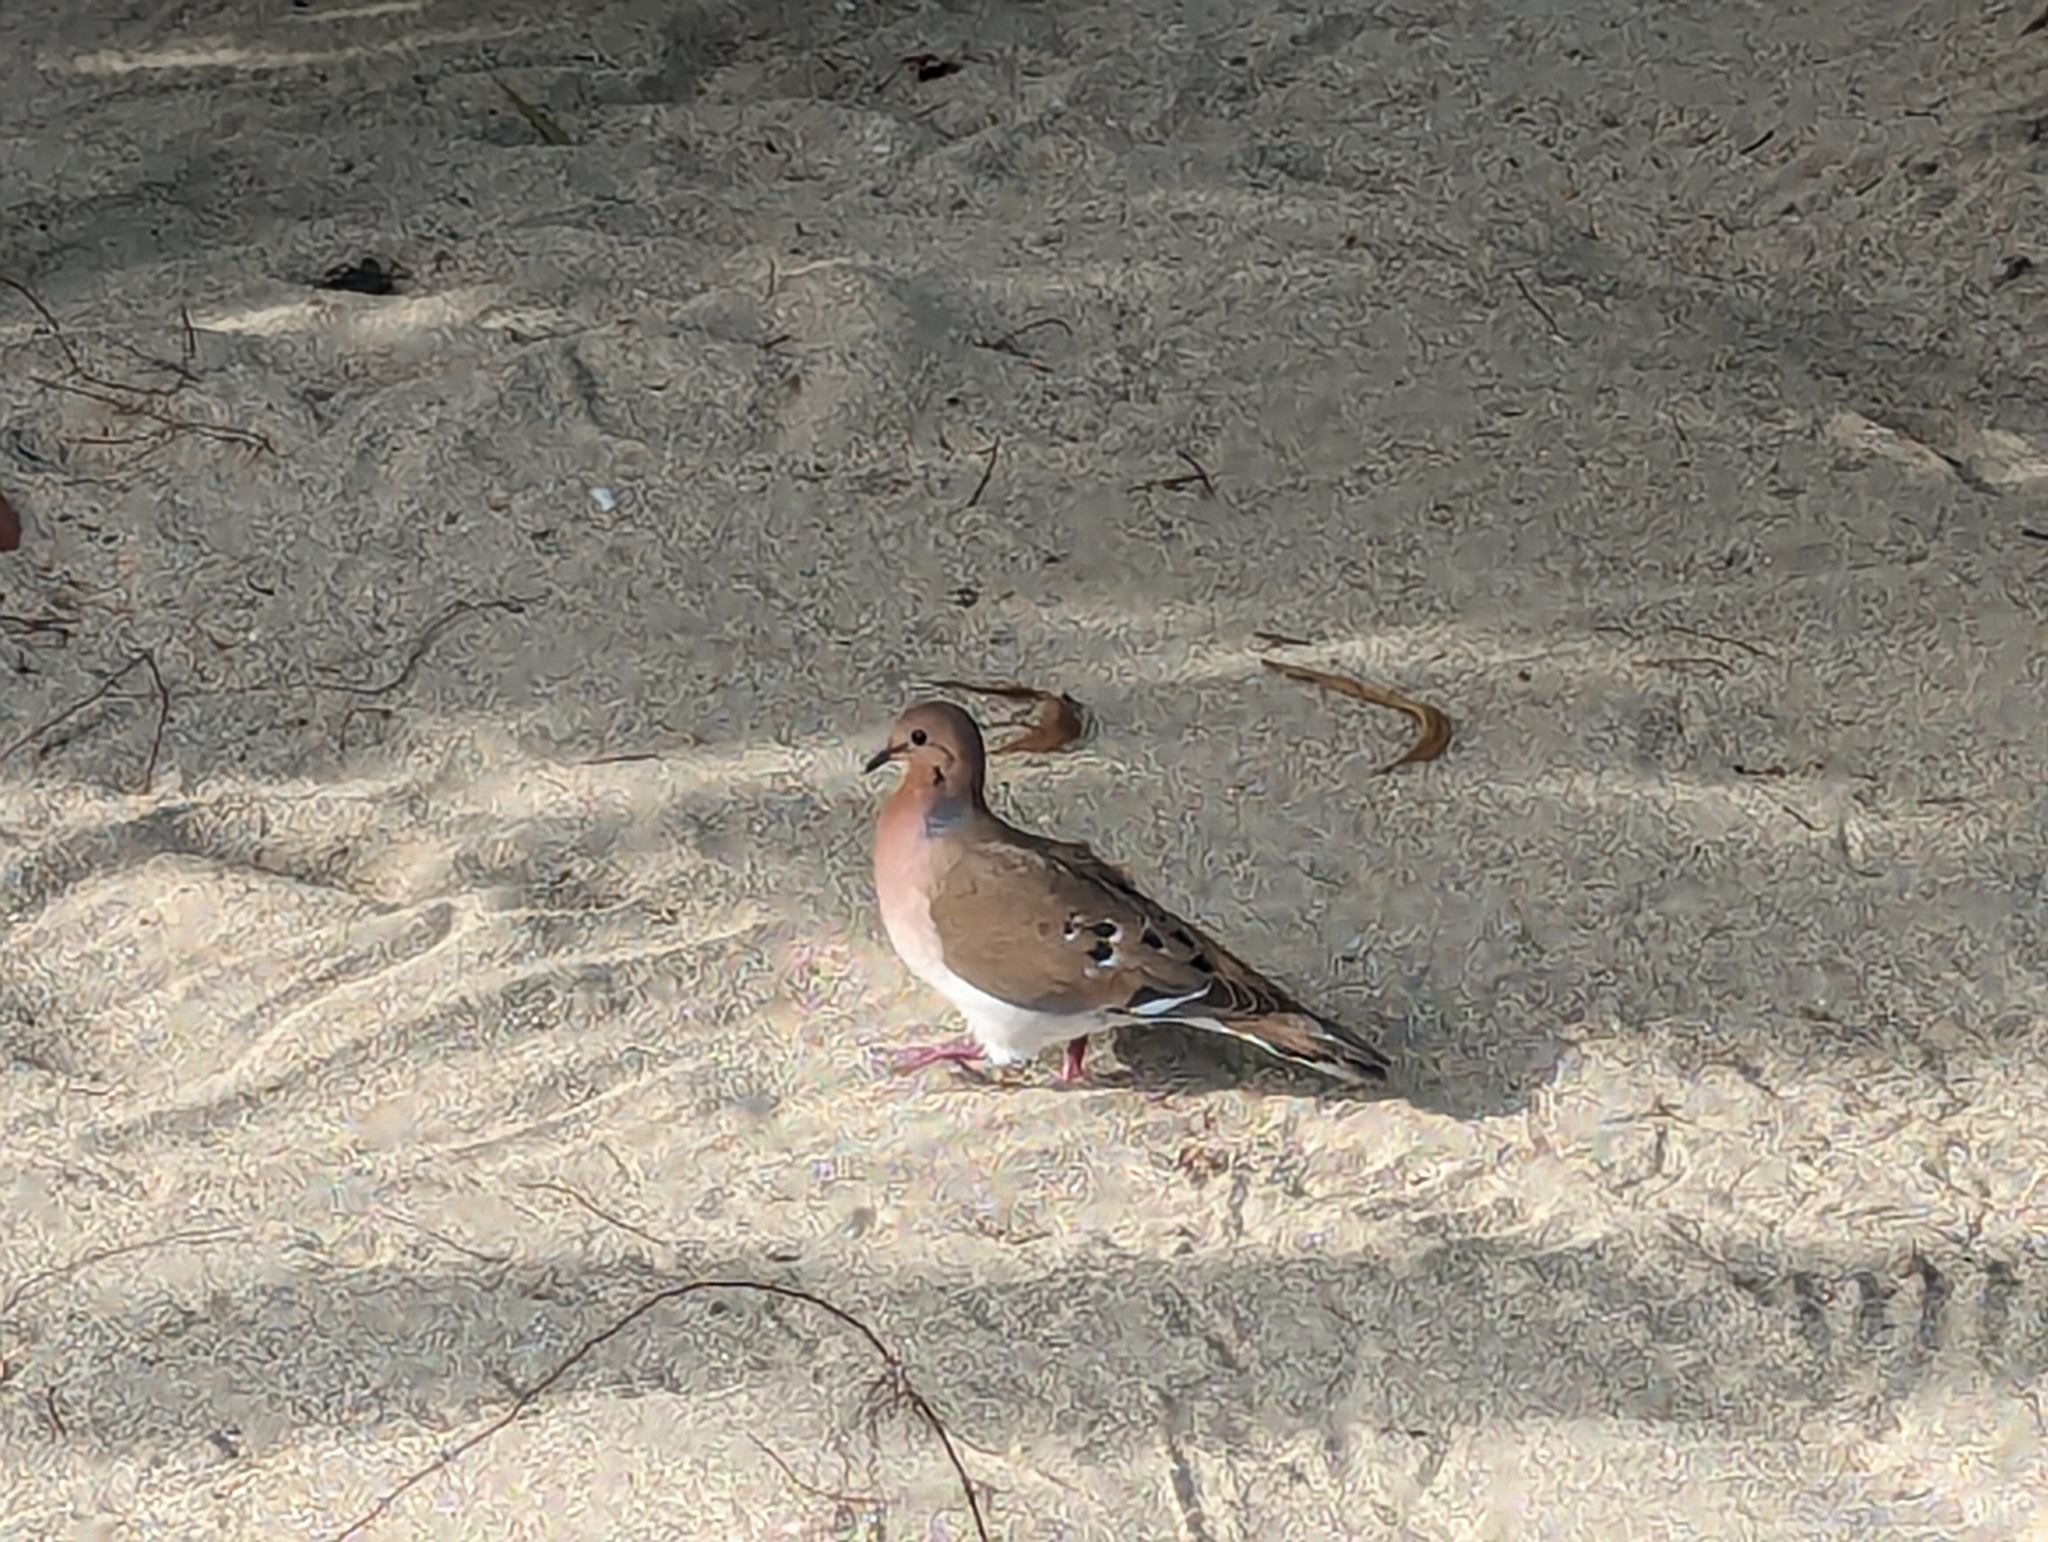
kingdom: Animalia
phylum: Chordata
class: Aves
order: Columbiformes
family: Columbidae
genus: Zenaida
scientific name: Zenaida aurita
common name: Zenaida dove
